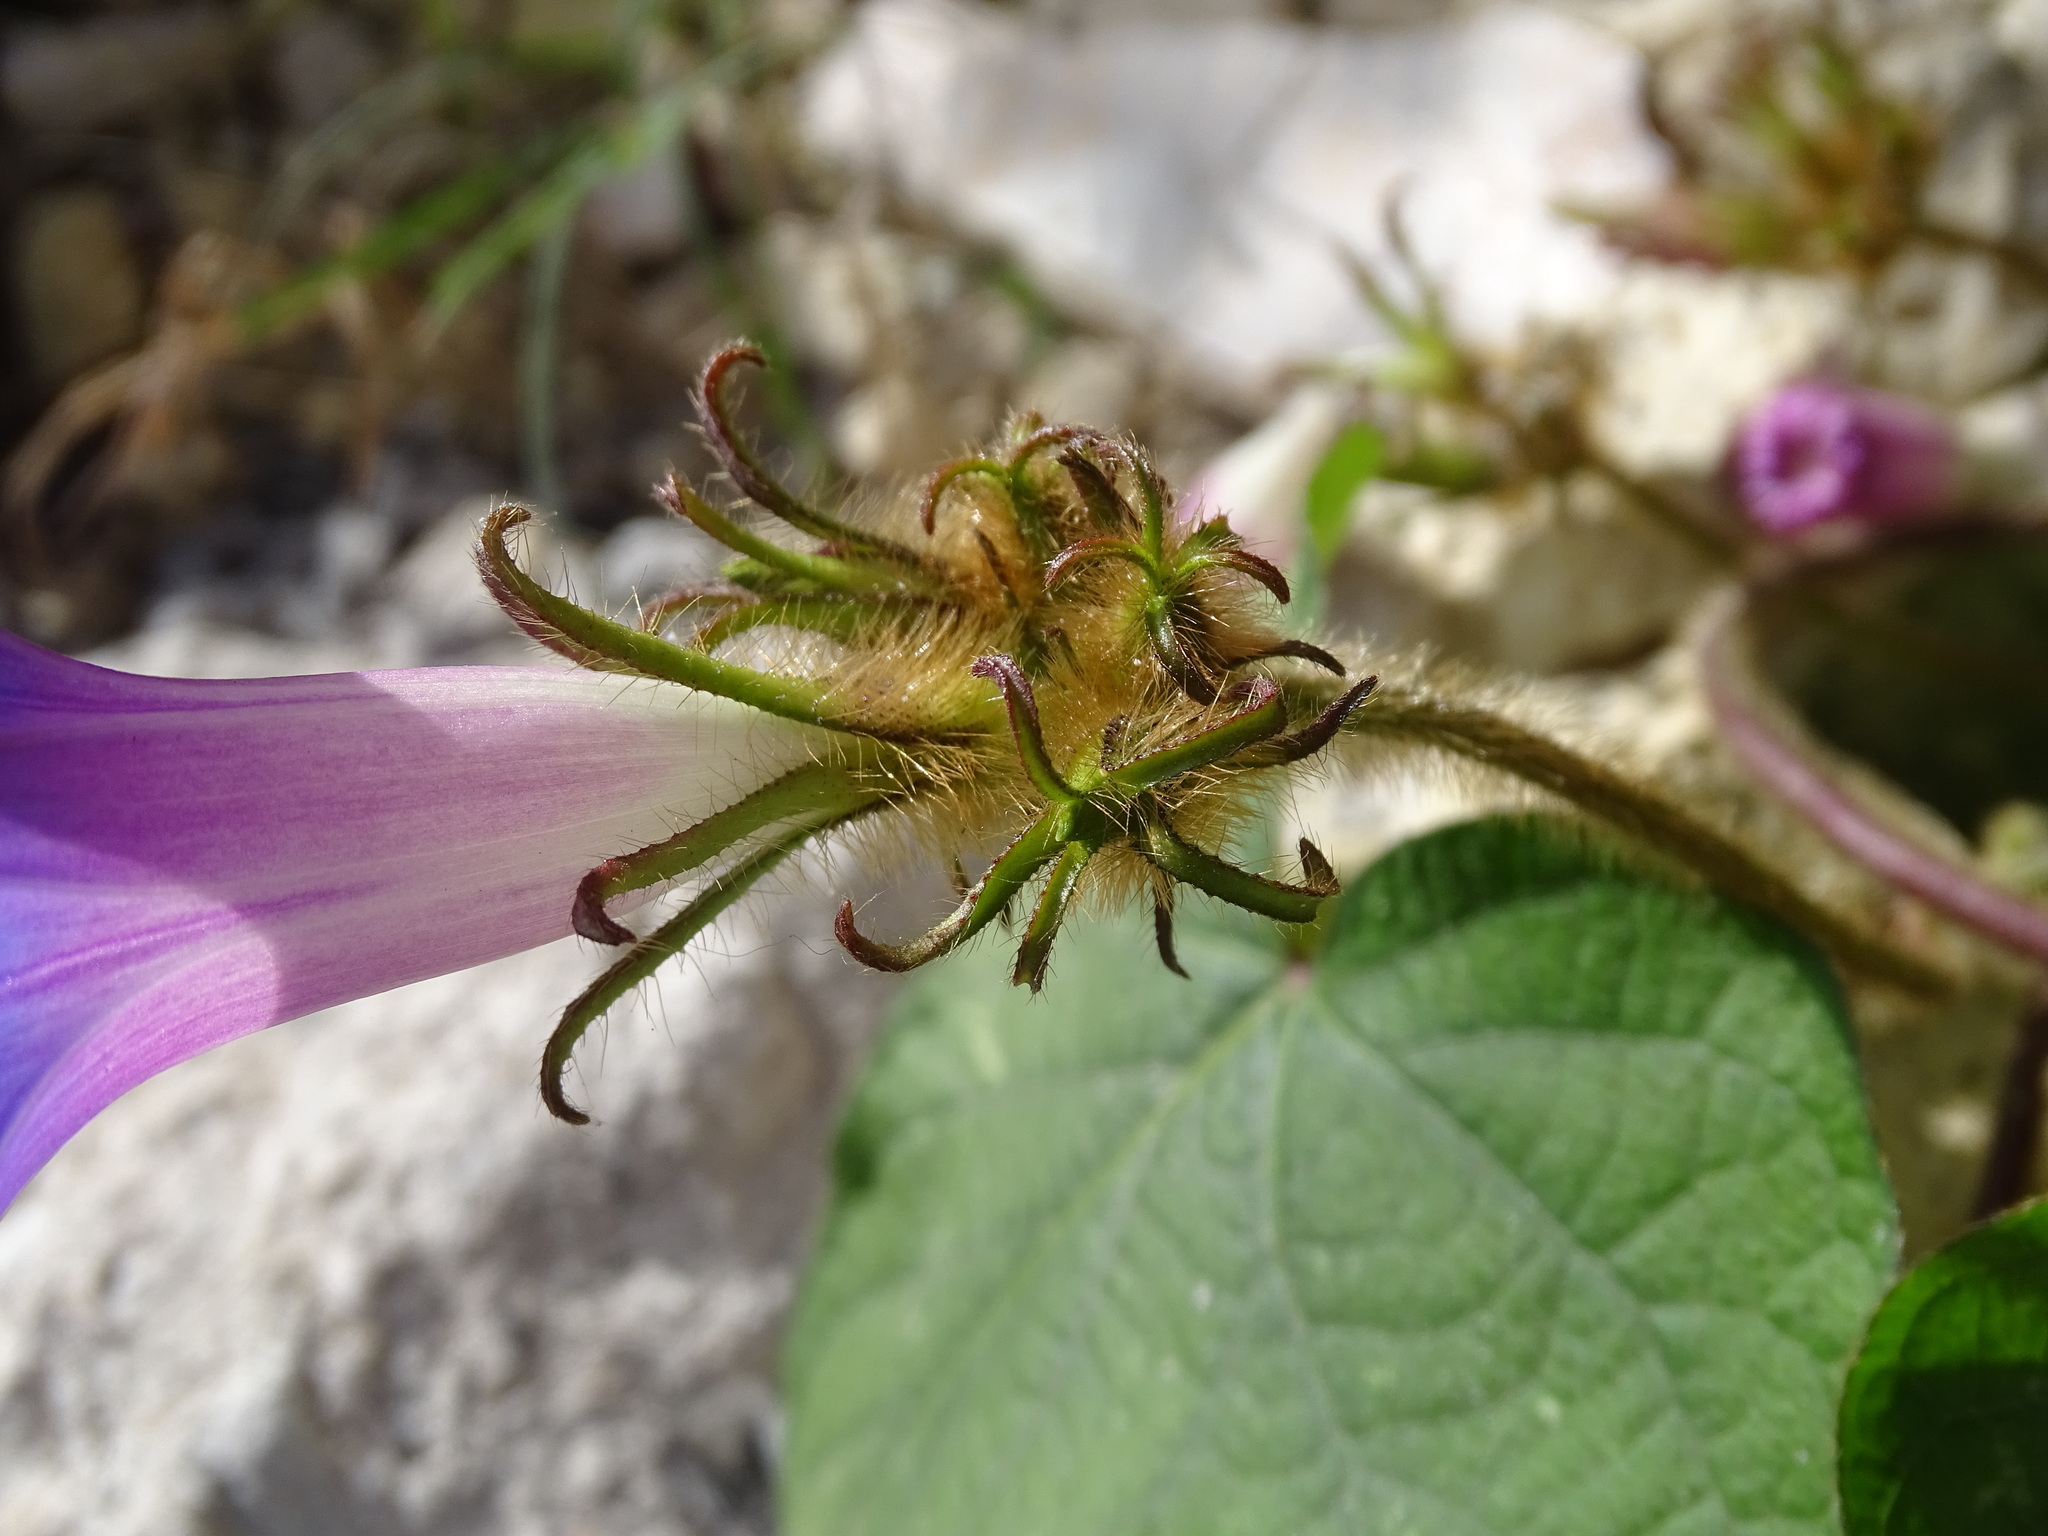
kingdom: Plantae
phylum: Tracheophyta
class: Magnoliopsida
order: Solanales
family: Convolvulaceae
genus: Ipomoea
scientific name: Ipomoea hederacea
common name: Ivy-leaved morning-glory
